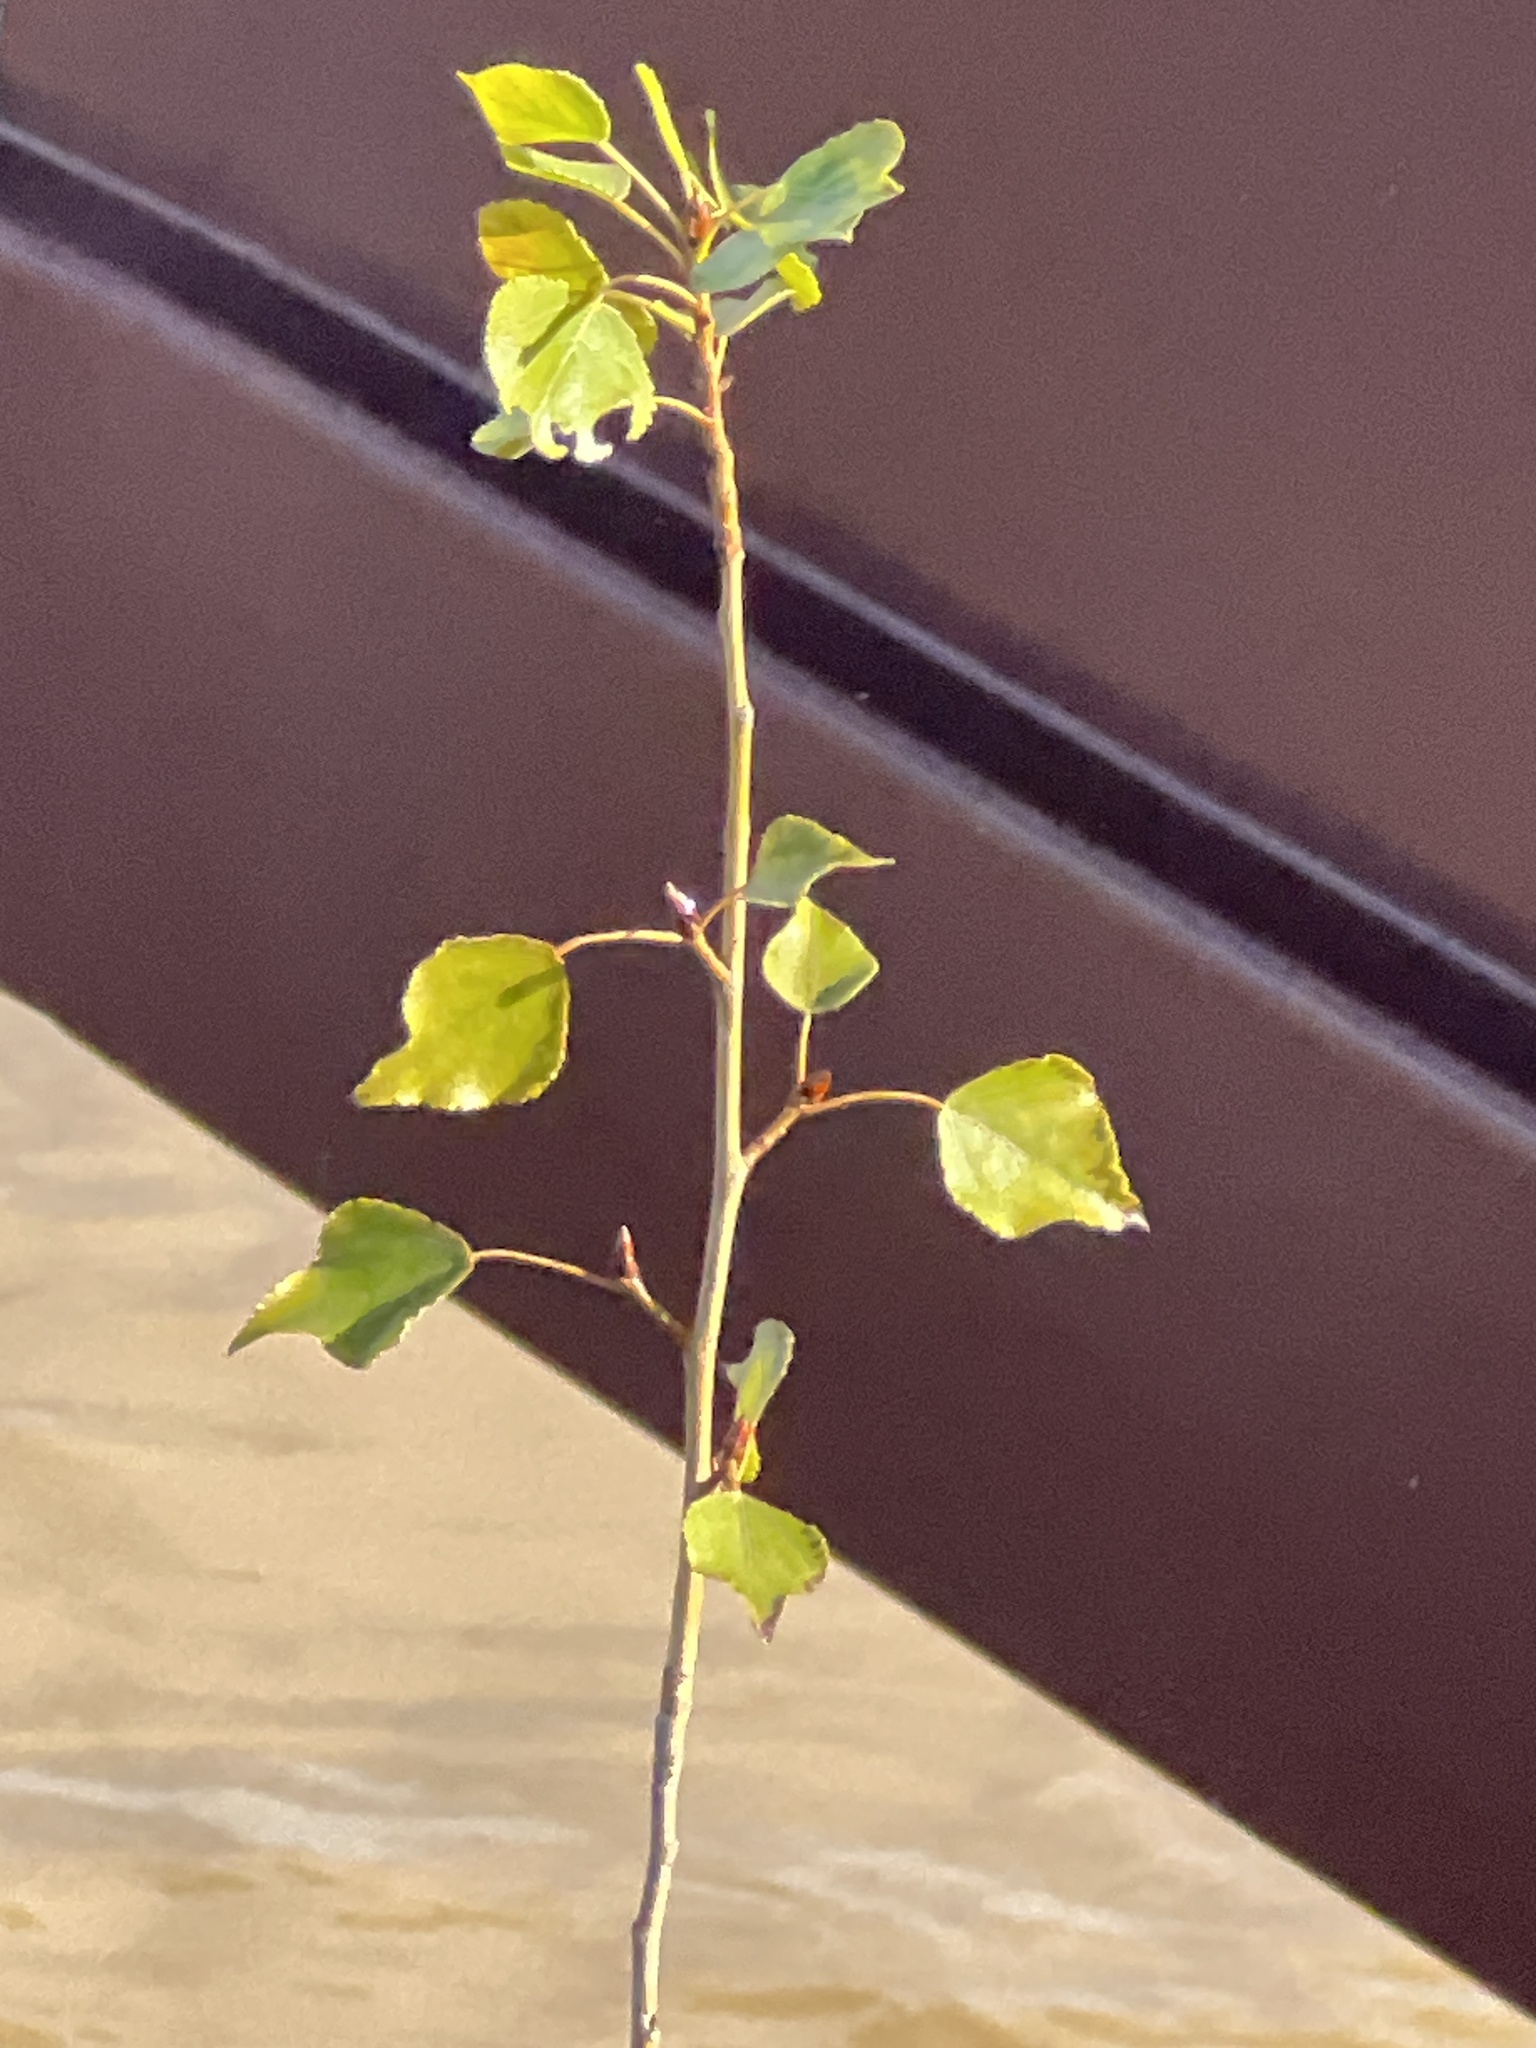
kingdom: Plantae
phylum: Tracheophyta
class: Magnoliopsida
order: Malpighiales
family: Salicaceae
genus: Populus
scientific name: Populus nigra
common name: Black poplar
